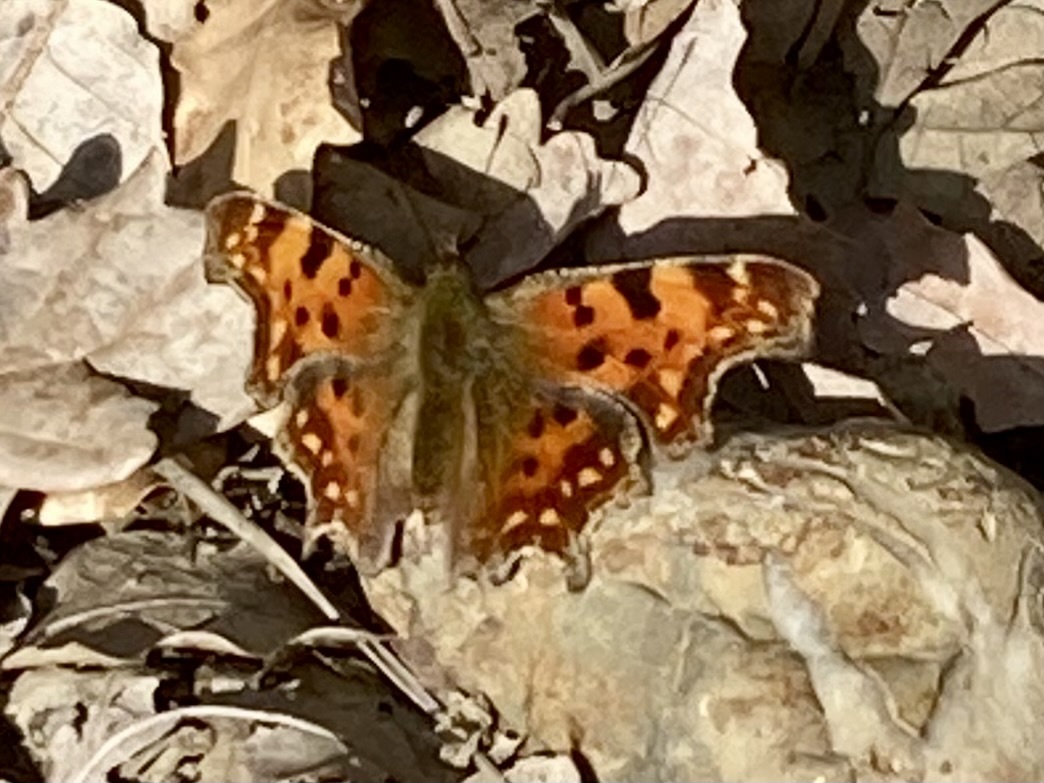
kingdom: Animalia
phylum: Arthropoda
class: Insecta
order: Lepidoptera
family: Nymphalidae
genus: Polygonia
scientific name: Polygonia c-album
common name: Comma
